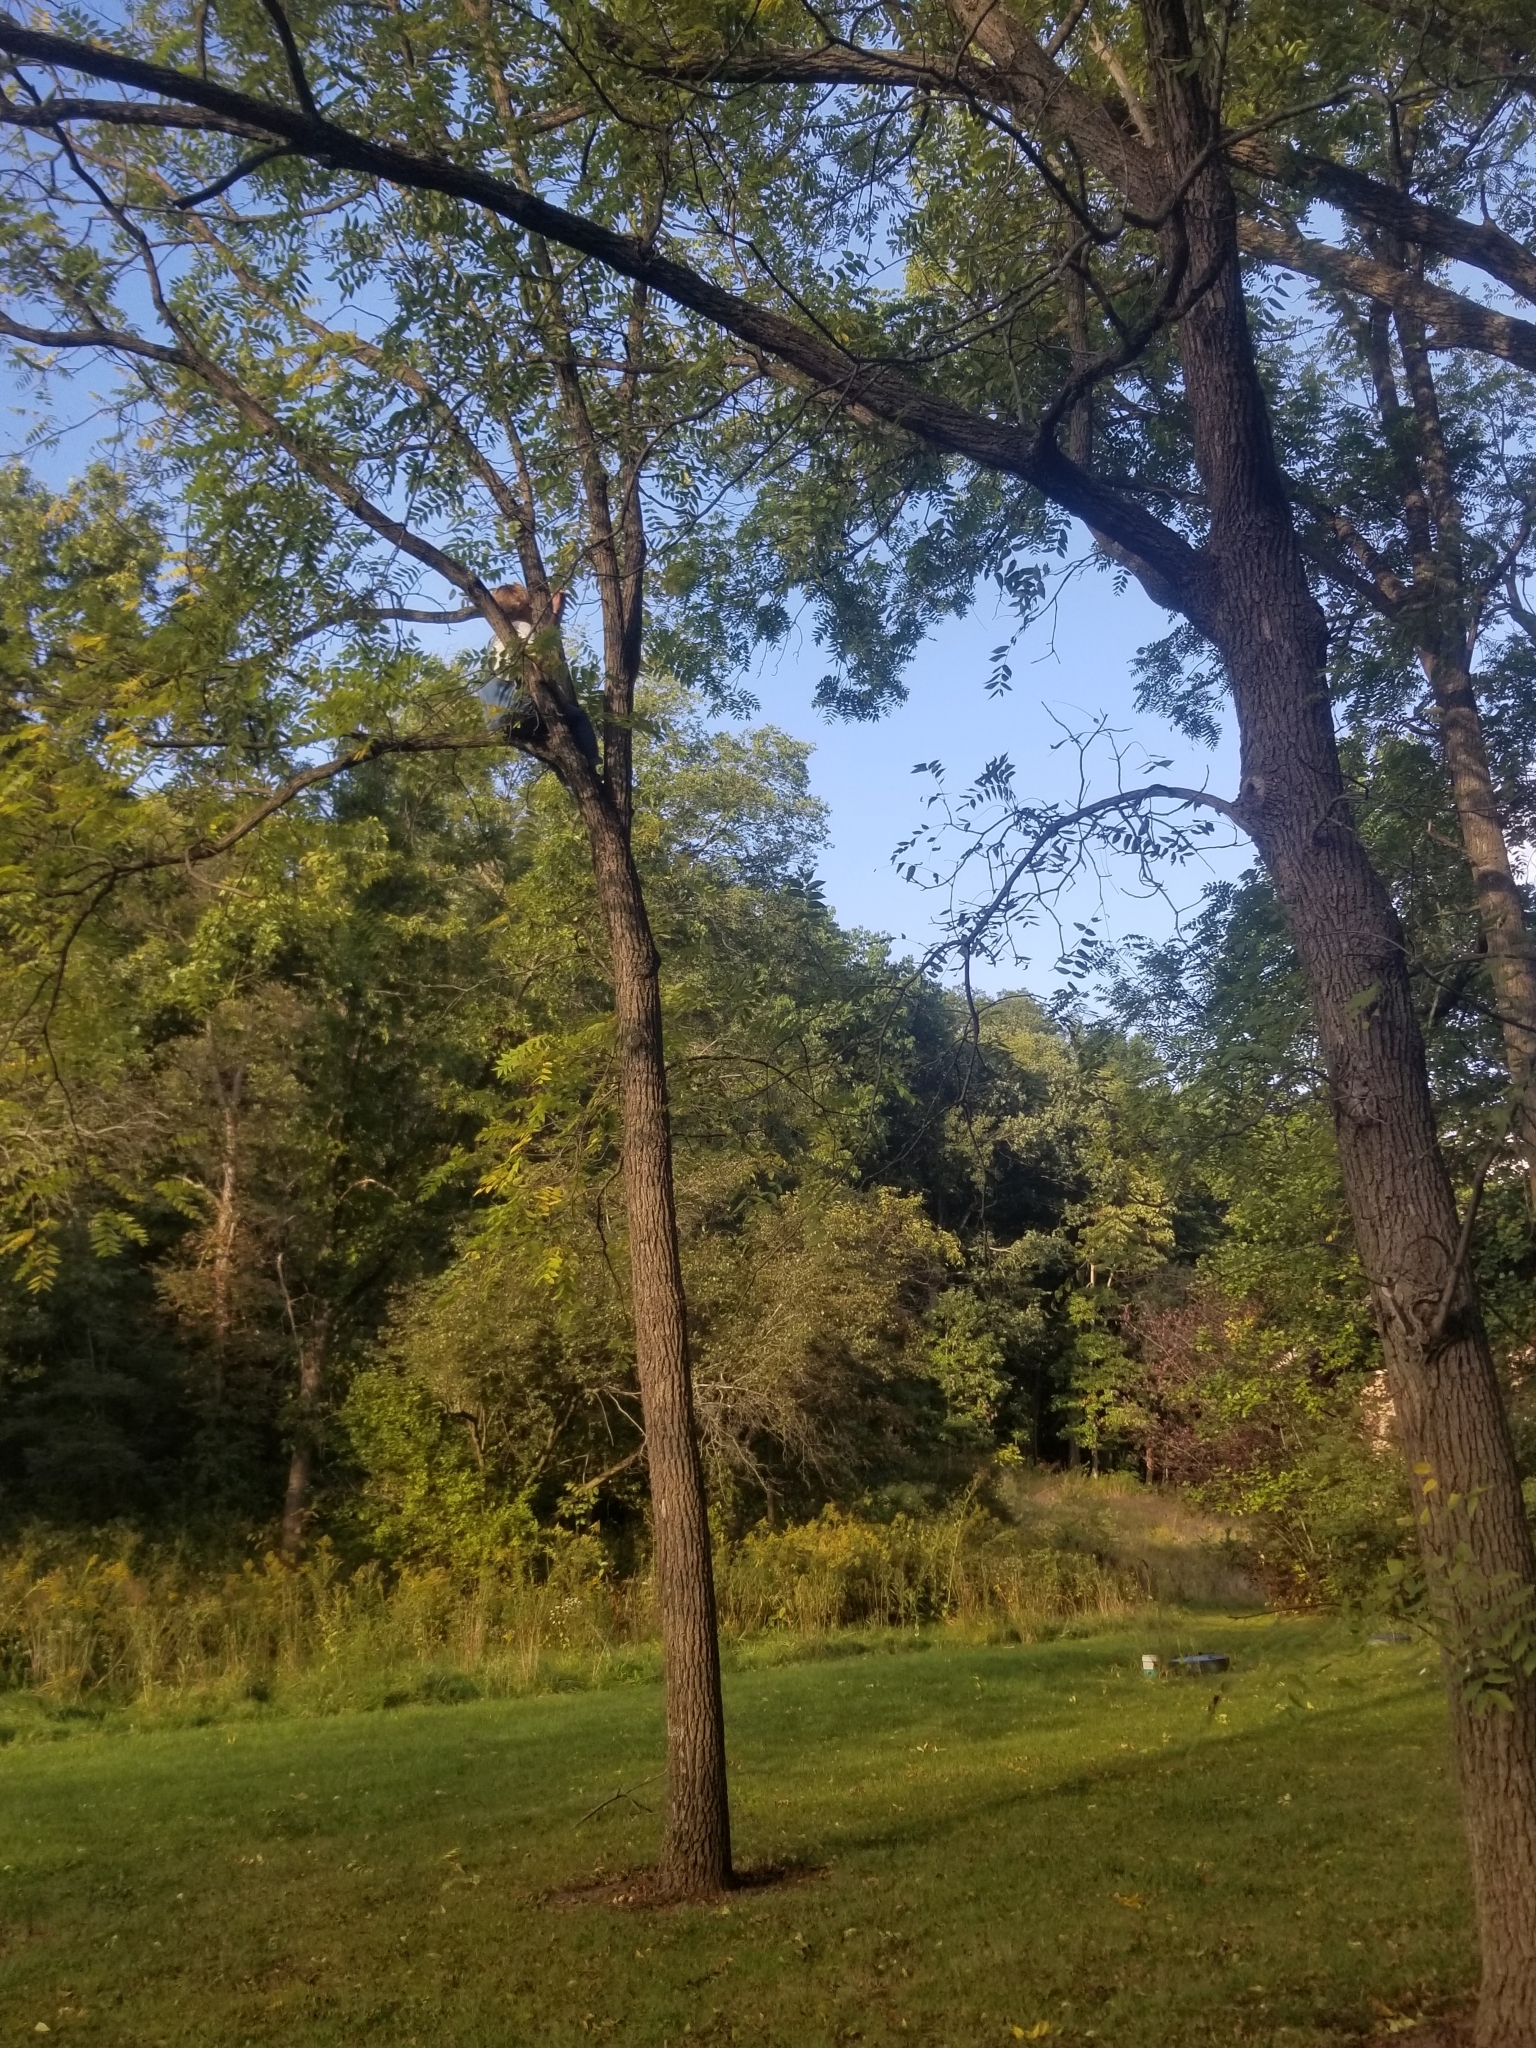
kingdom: Plantae
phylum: Tracheophyta
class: Magnoliopsida
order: Fagales
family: Juglandaceae
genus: Juglans
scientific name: Juglans nigra
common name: Black walnut
